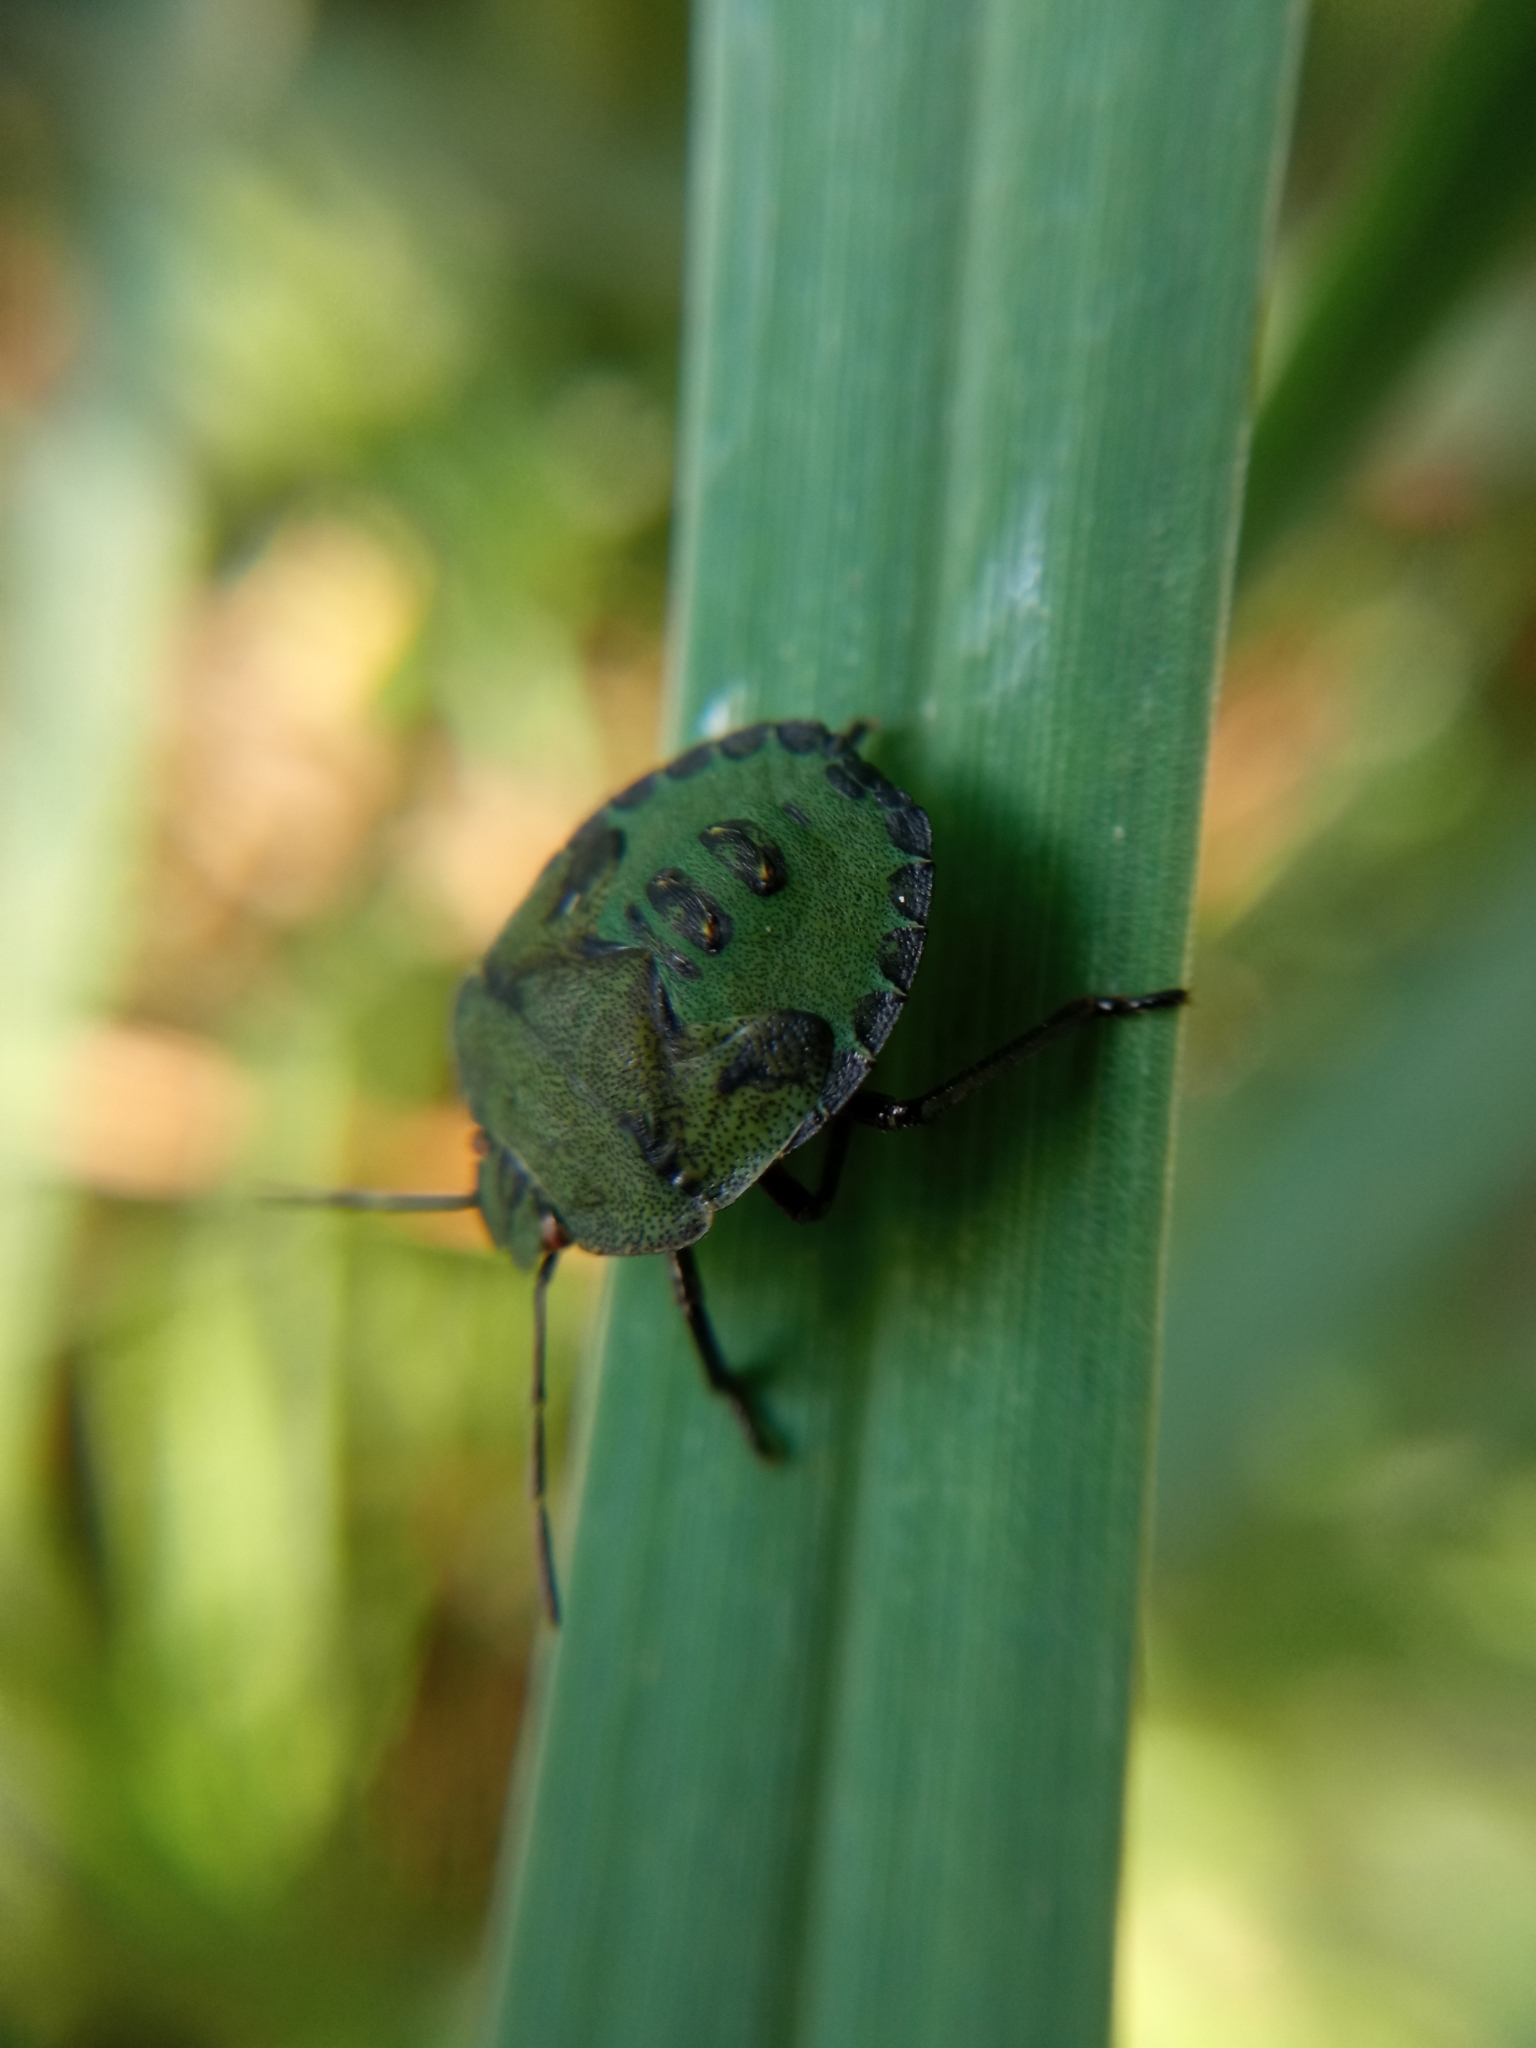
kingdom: Animalia
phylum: Arthropoda
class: Insecta
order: Hemiptera
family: Pentatomidae
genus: Palomena
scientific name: Palomena prasina
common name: Green shieldbug
